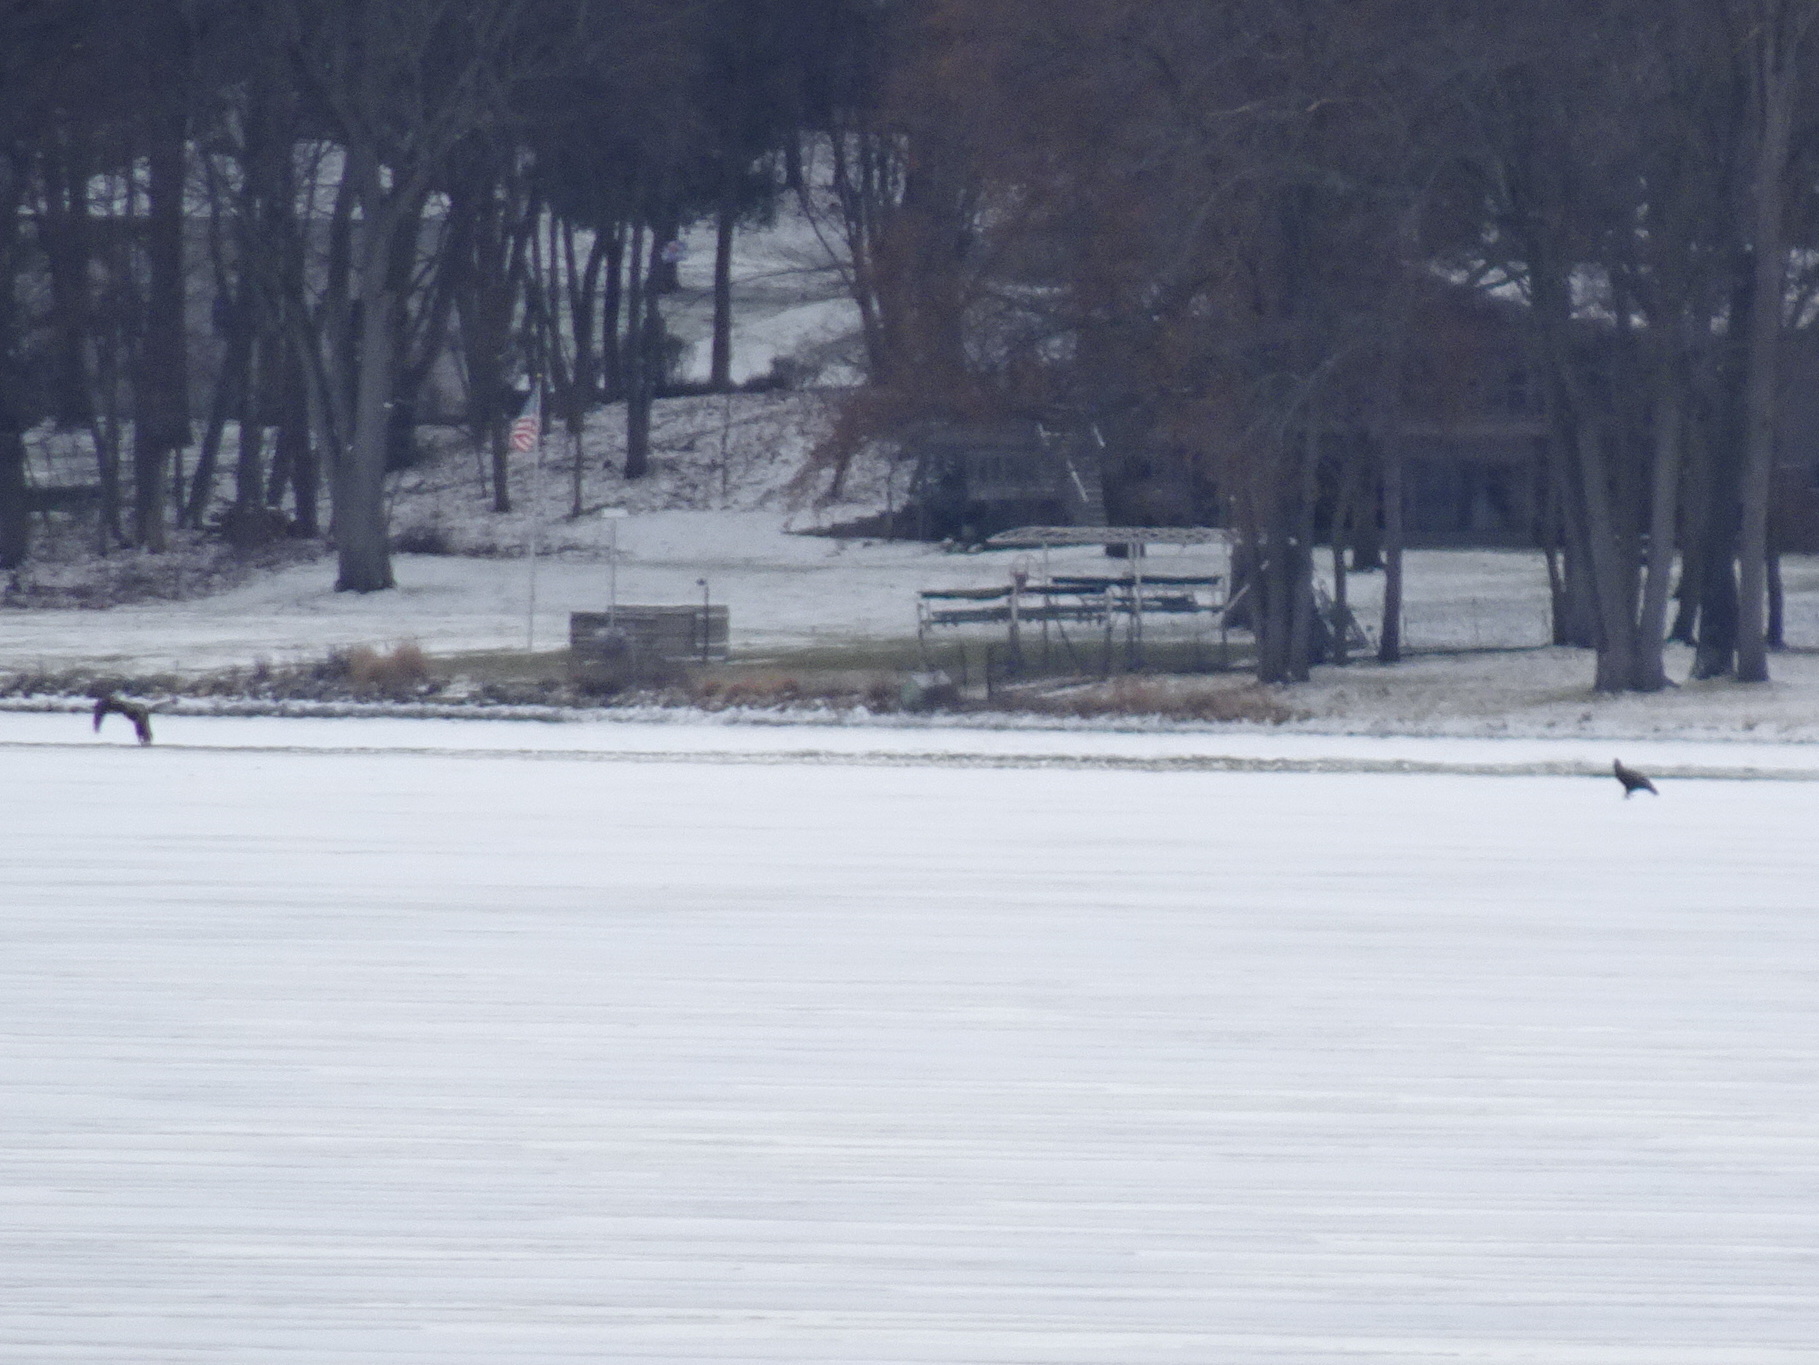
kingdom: Animalia
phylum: Chordata
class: Aves
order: Accipitriformes
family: Accipitridae
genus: Haliaeetus
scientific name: Haliaeetus leucocephalus
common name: Bald eagle
